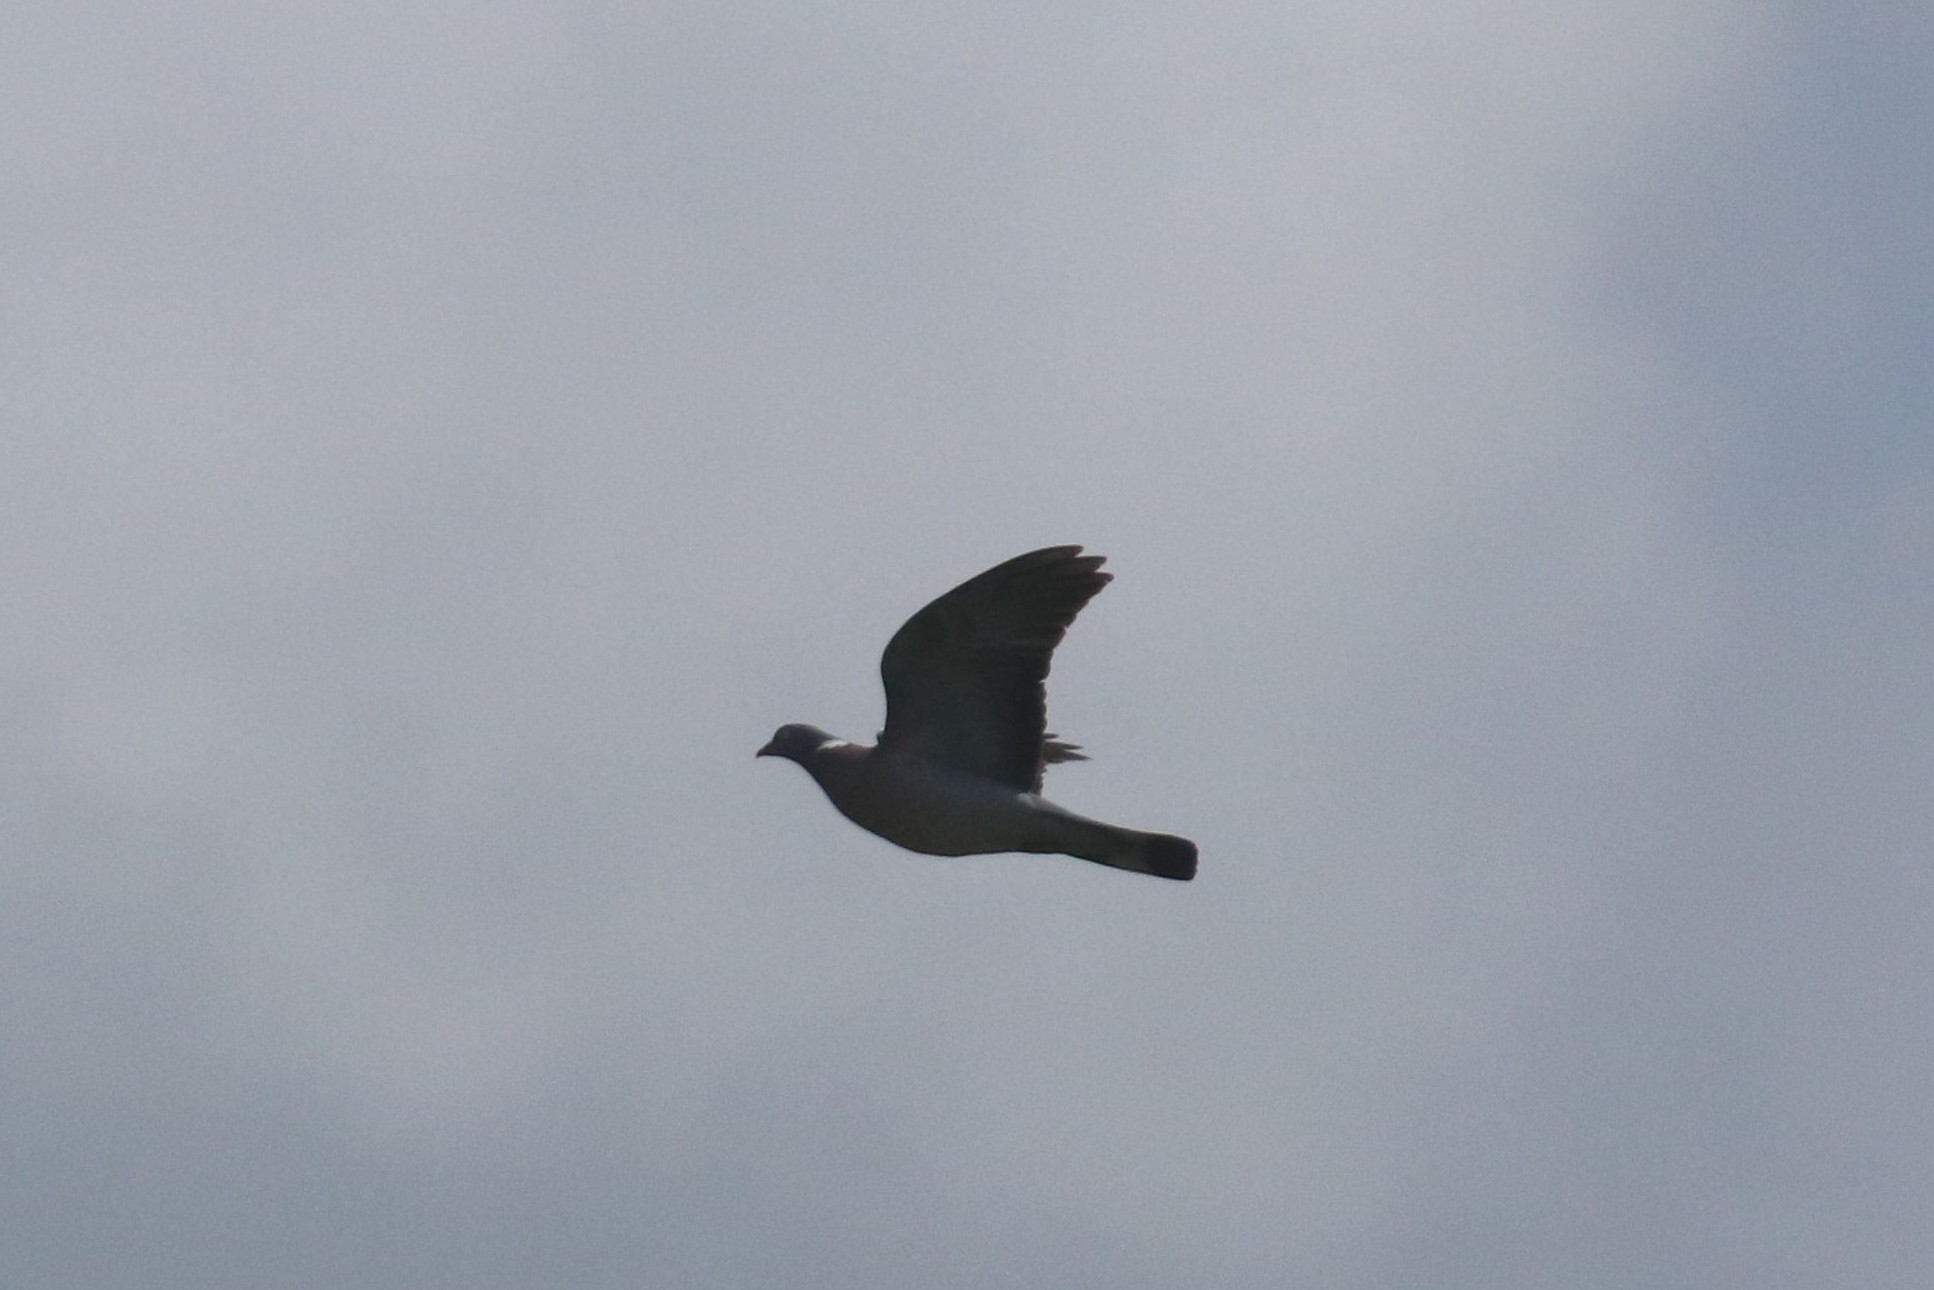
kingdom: Animalia
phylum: Chordata
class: Aves
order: Columbiformes
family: Columbidae
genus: Columba
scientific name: Columba palumbus
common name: Common wood pigeon
